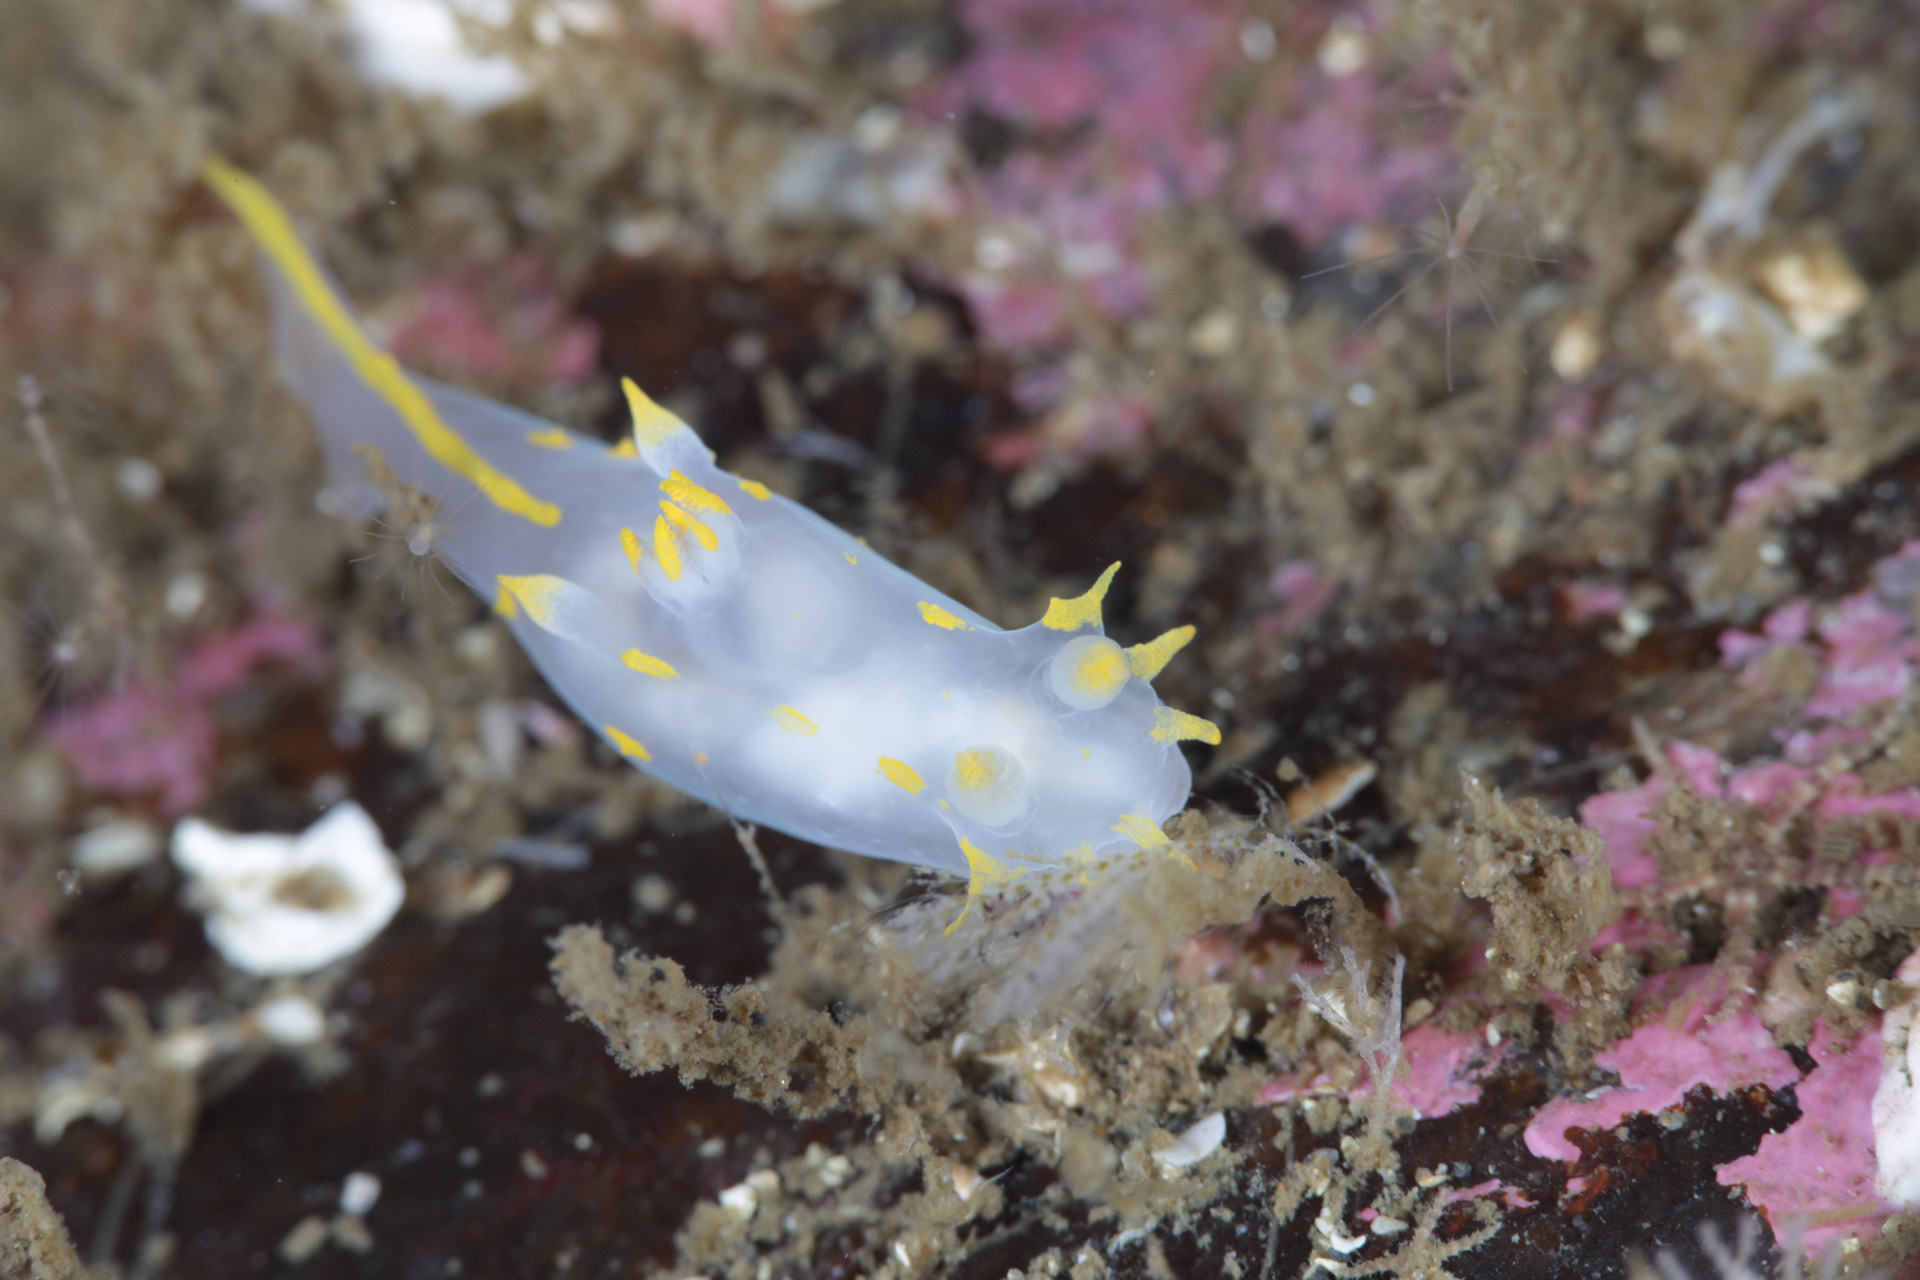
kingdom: Animalia
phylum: Mollusca
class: Gastropoda
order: Nudibranchia
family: Polyceridae
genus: Polycera
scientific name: Polycera quadrilineata
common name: Four-striped polycera
